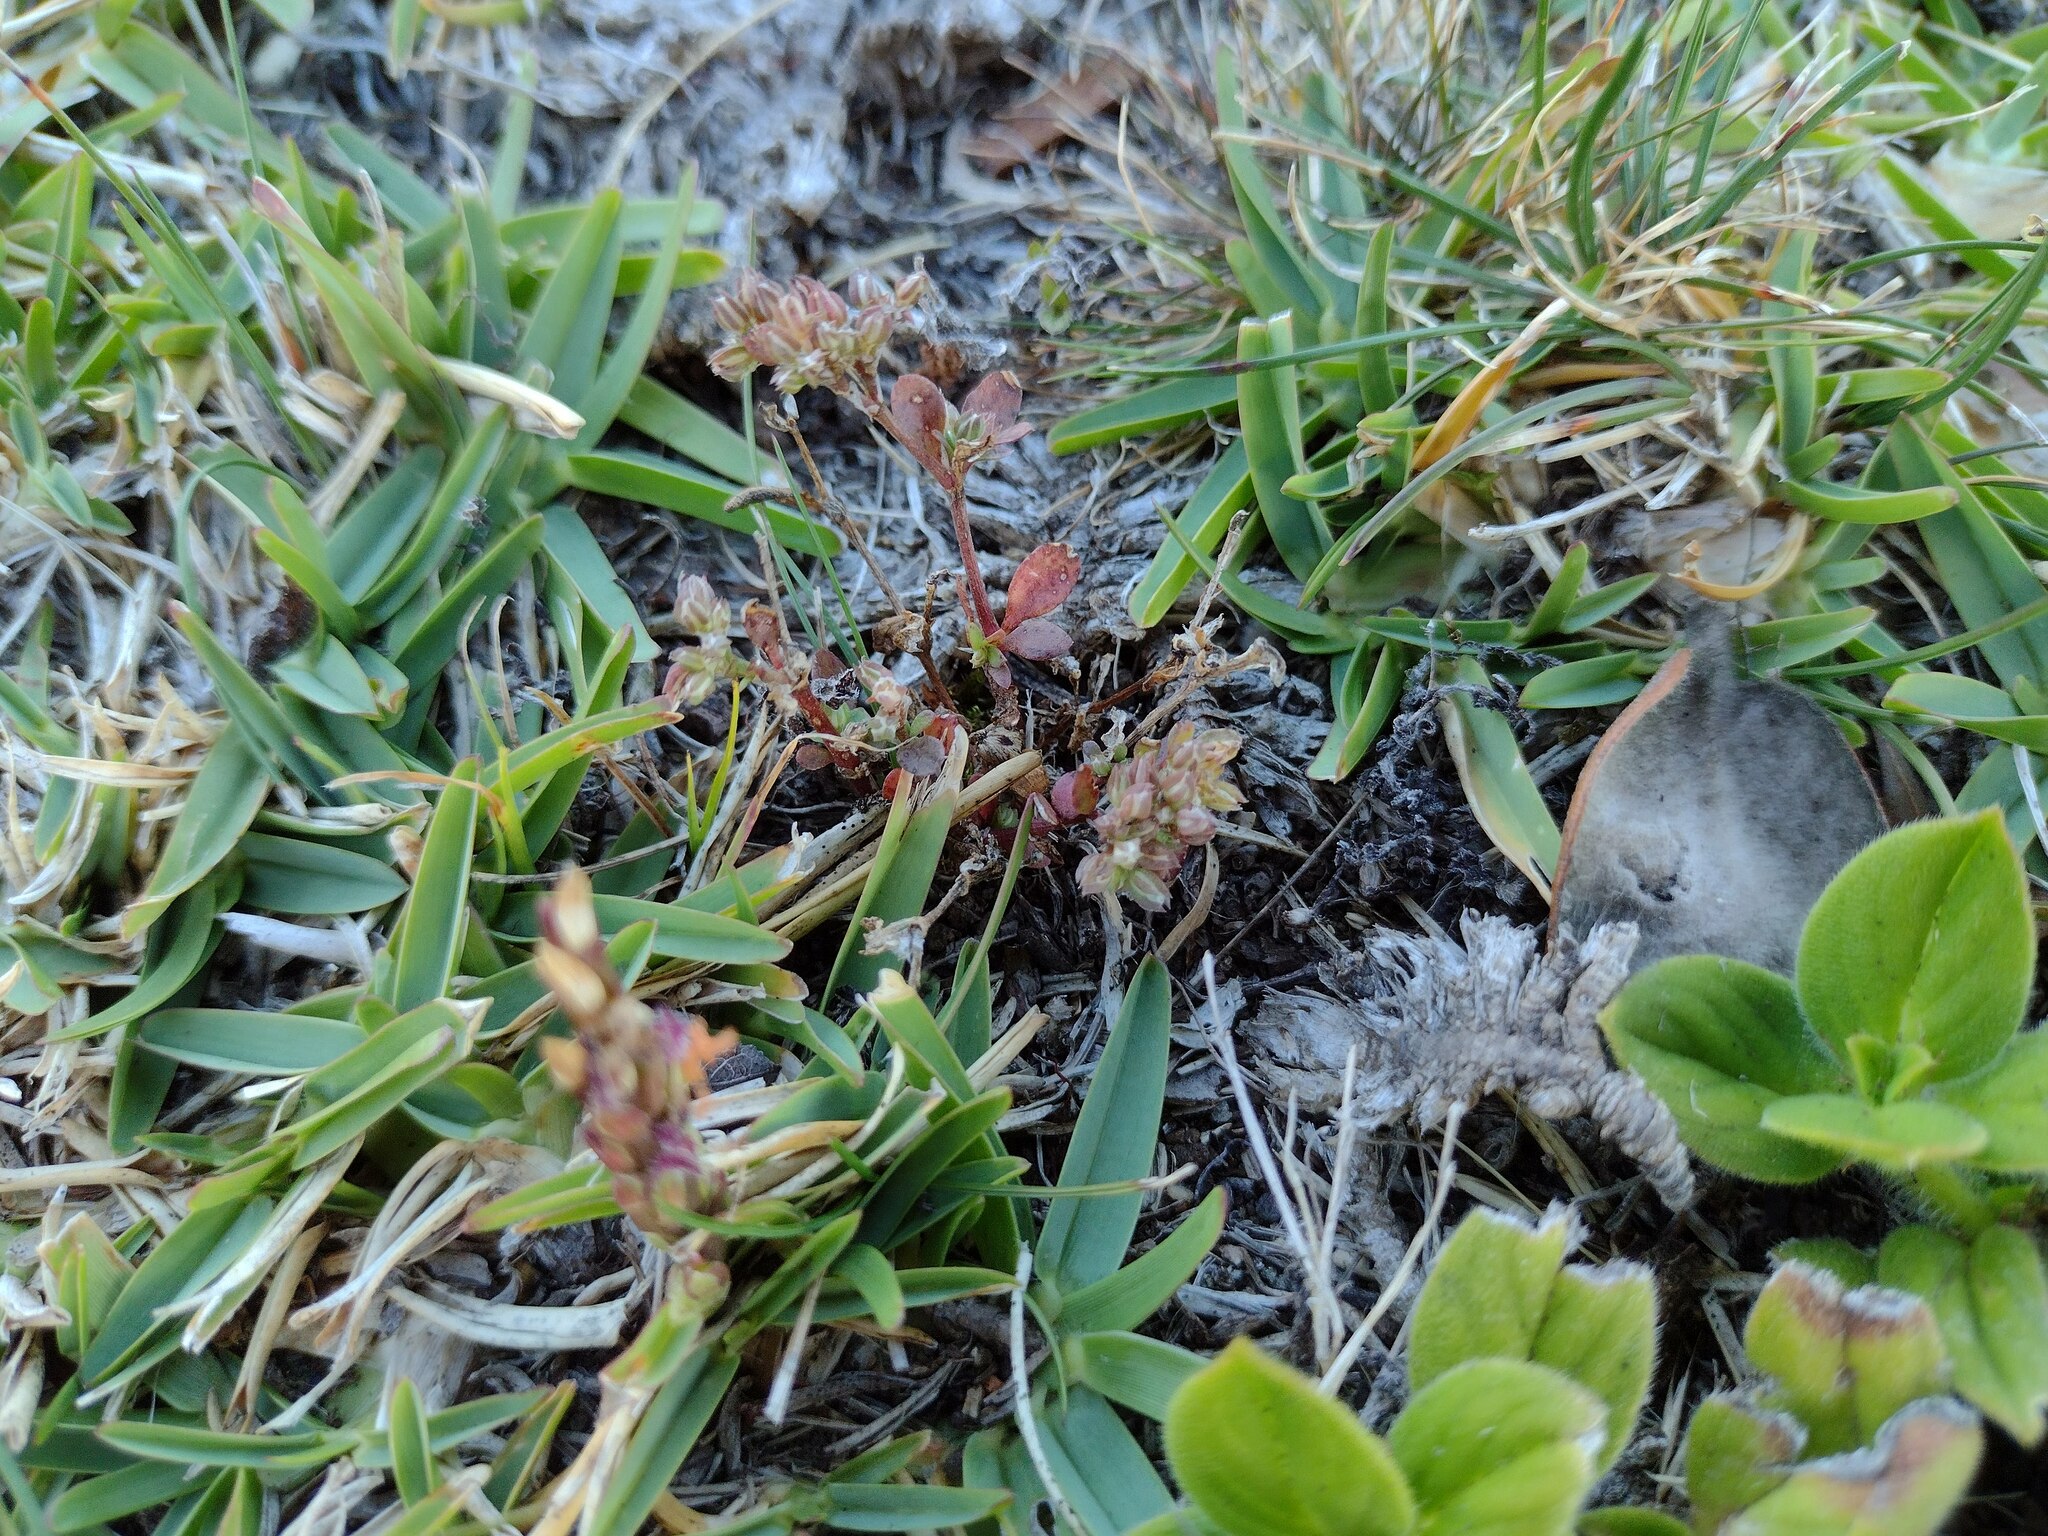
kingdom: Plantae
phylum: Tracheophyta
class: Magnoliopsida
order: Caryophyllales
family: Caryophyllaceae
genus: Polycarpon
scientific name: Polycarpon tetraphyllum
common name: Four-leaved all-seed
